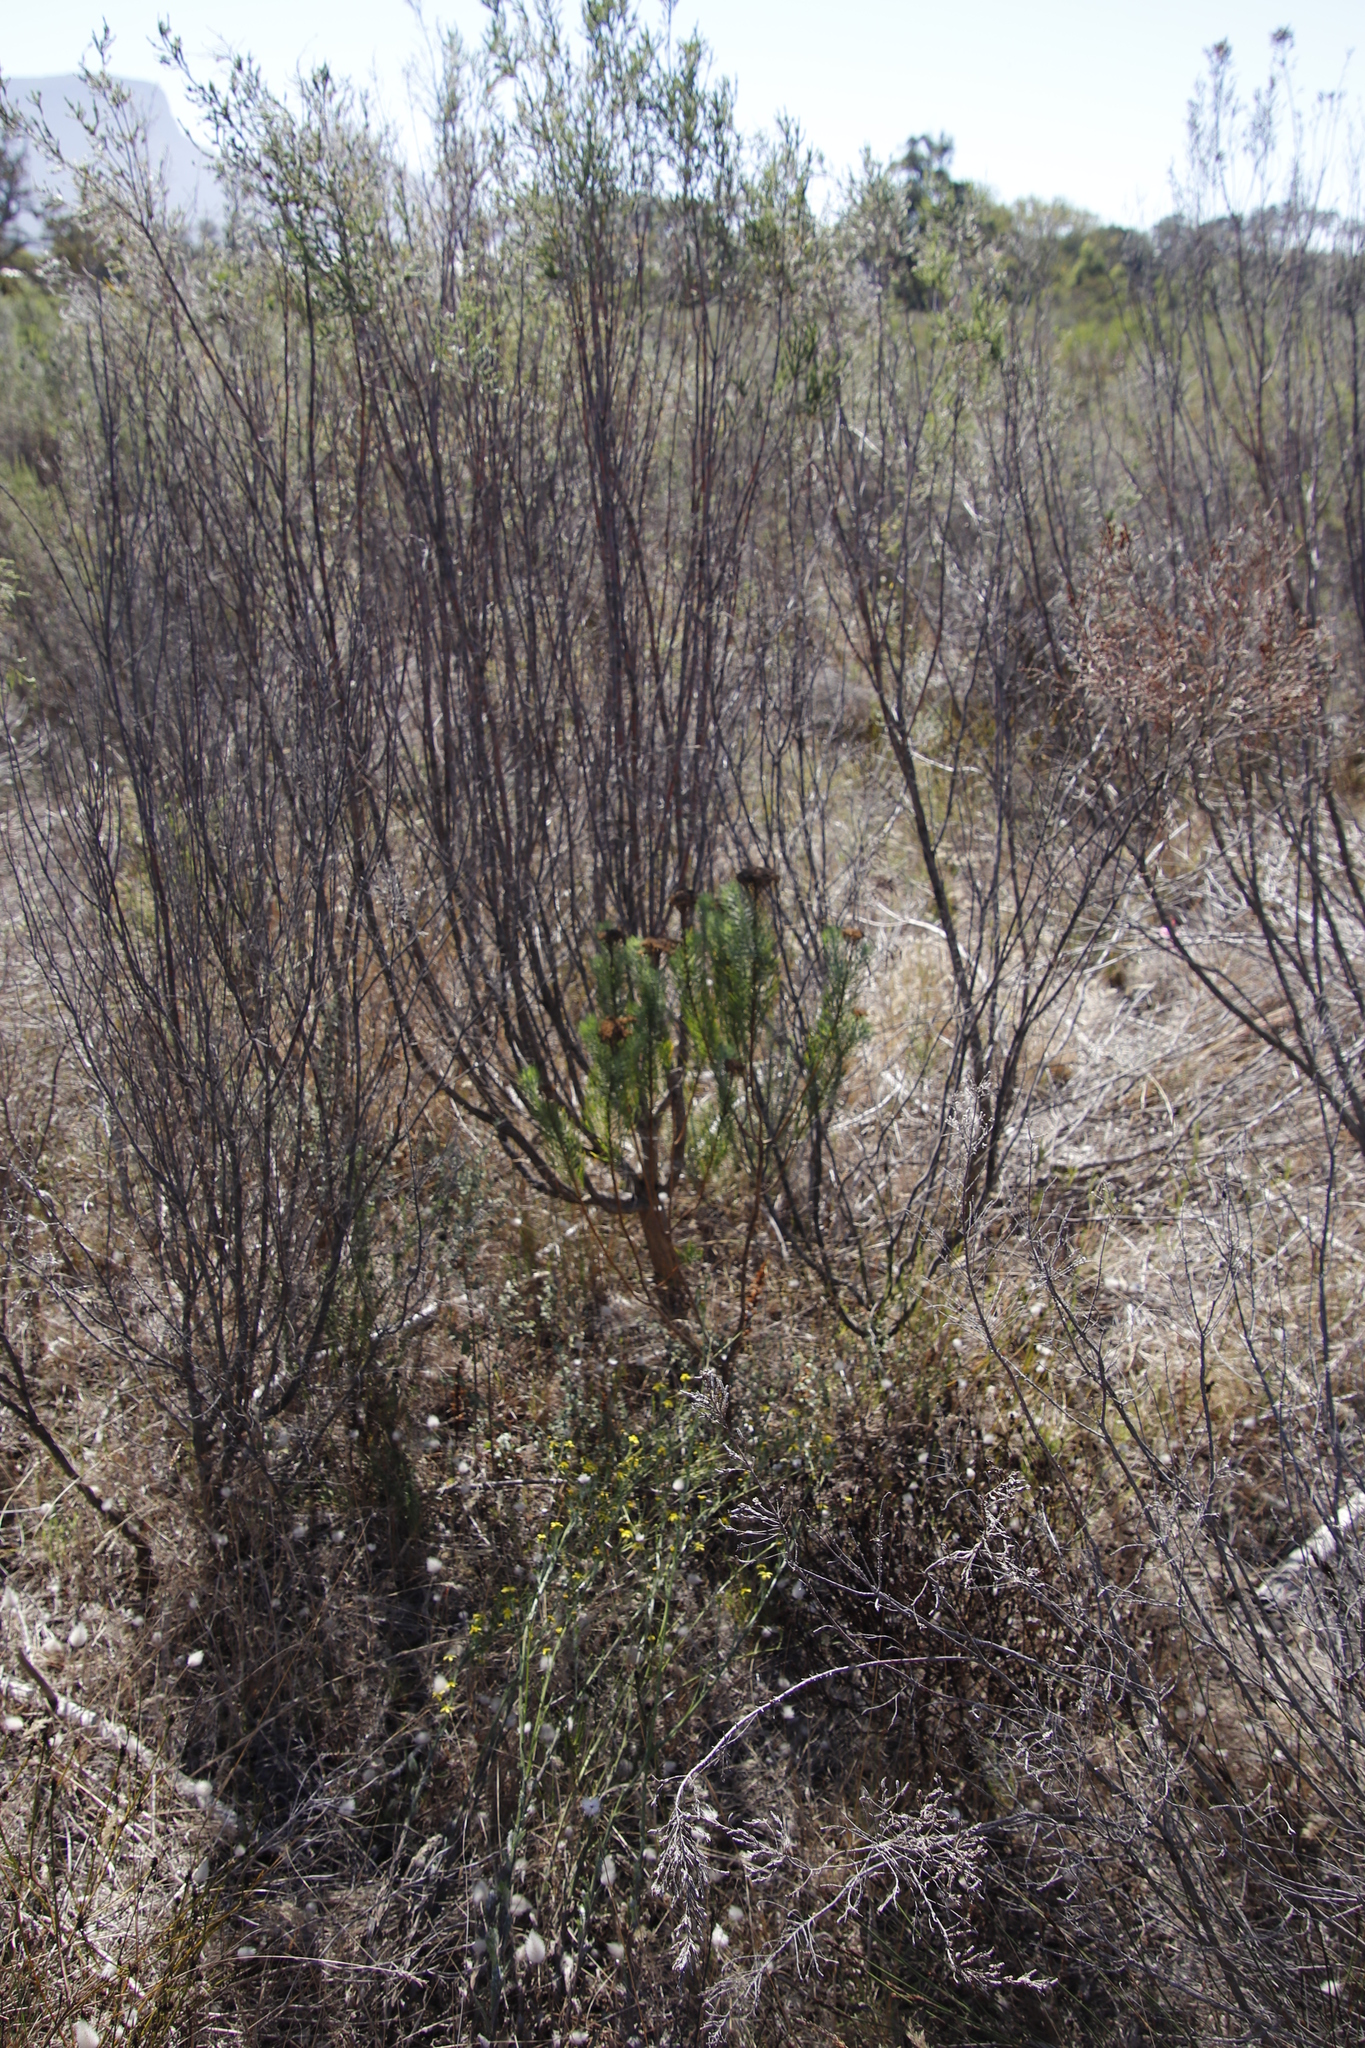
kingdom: Plantae
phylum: Tracheophyta
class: Magnoliopsida
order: Asterales
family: Asteraceae
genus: Athanasia
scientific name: Athanasia crithmifolia
